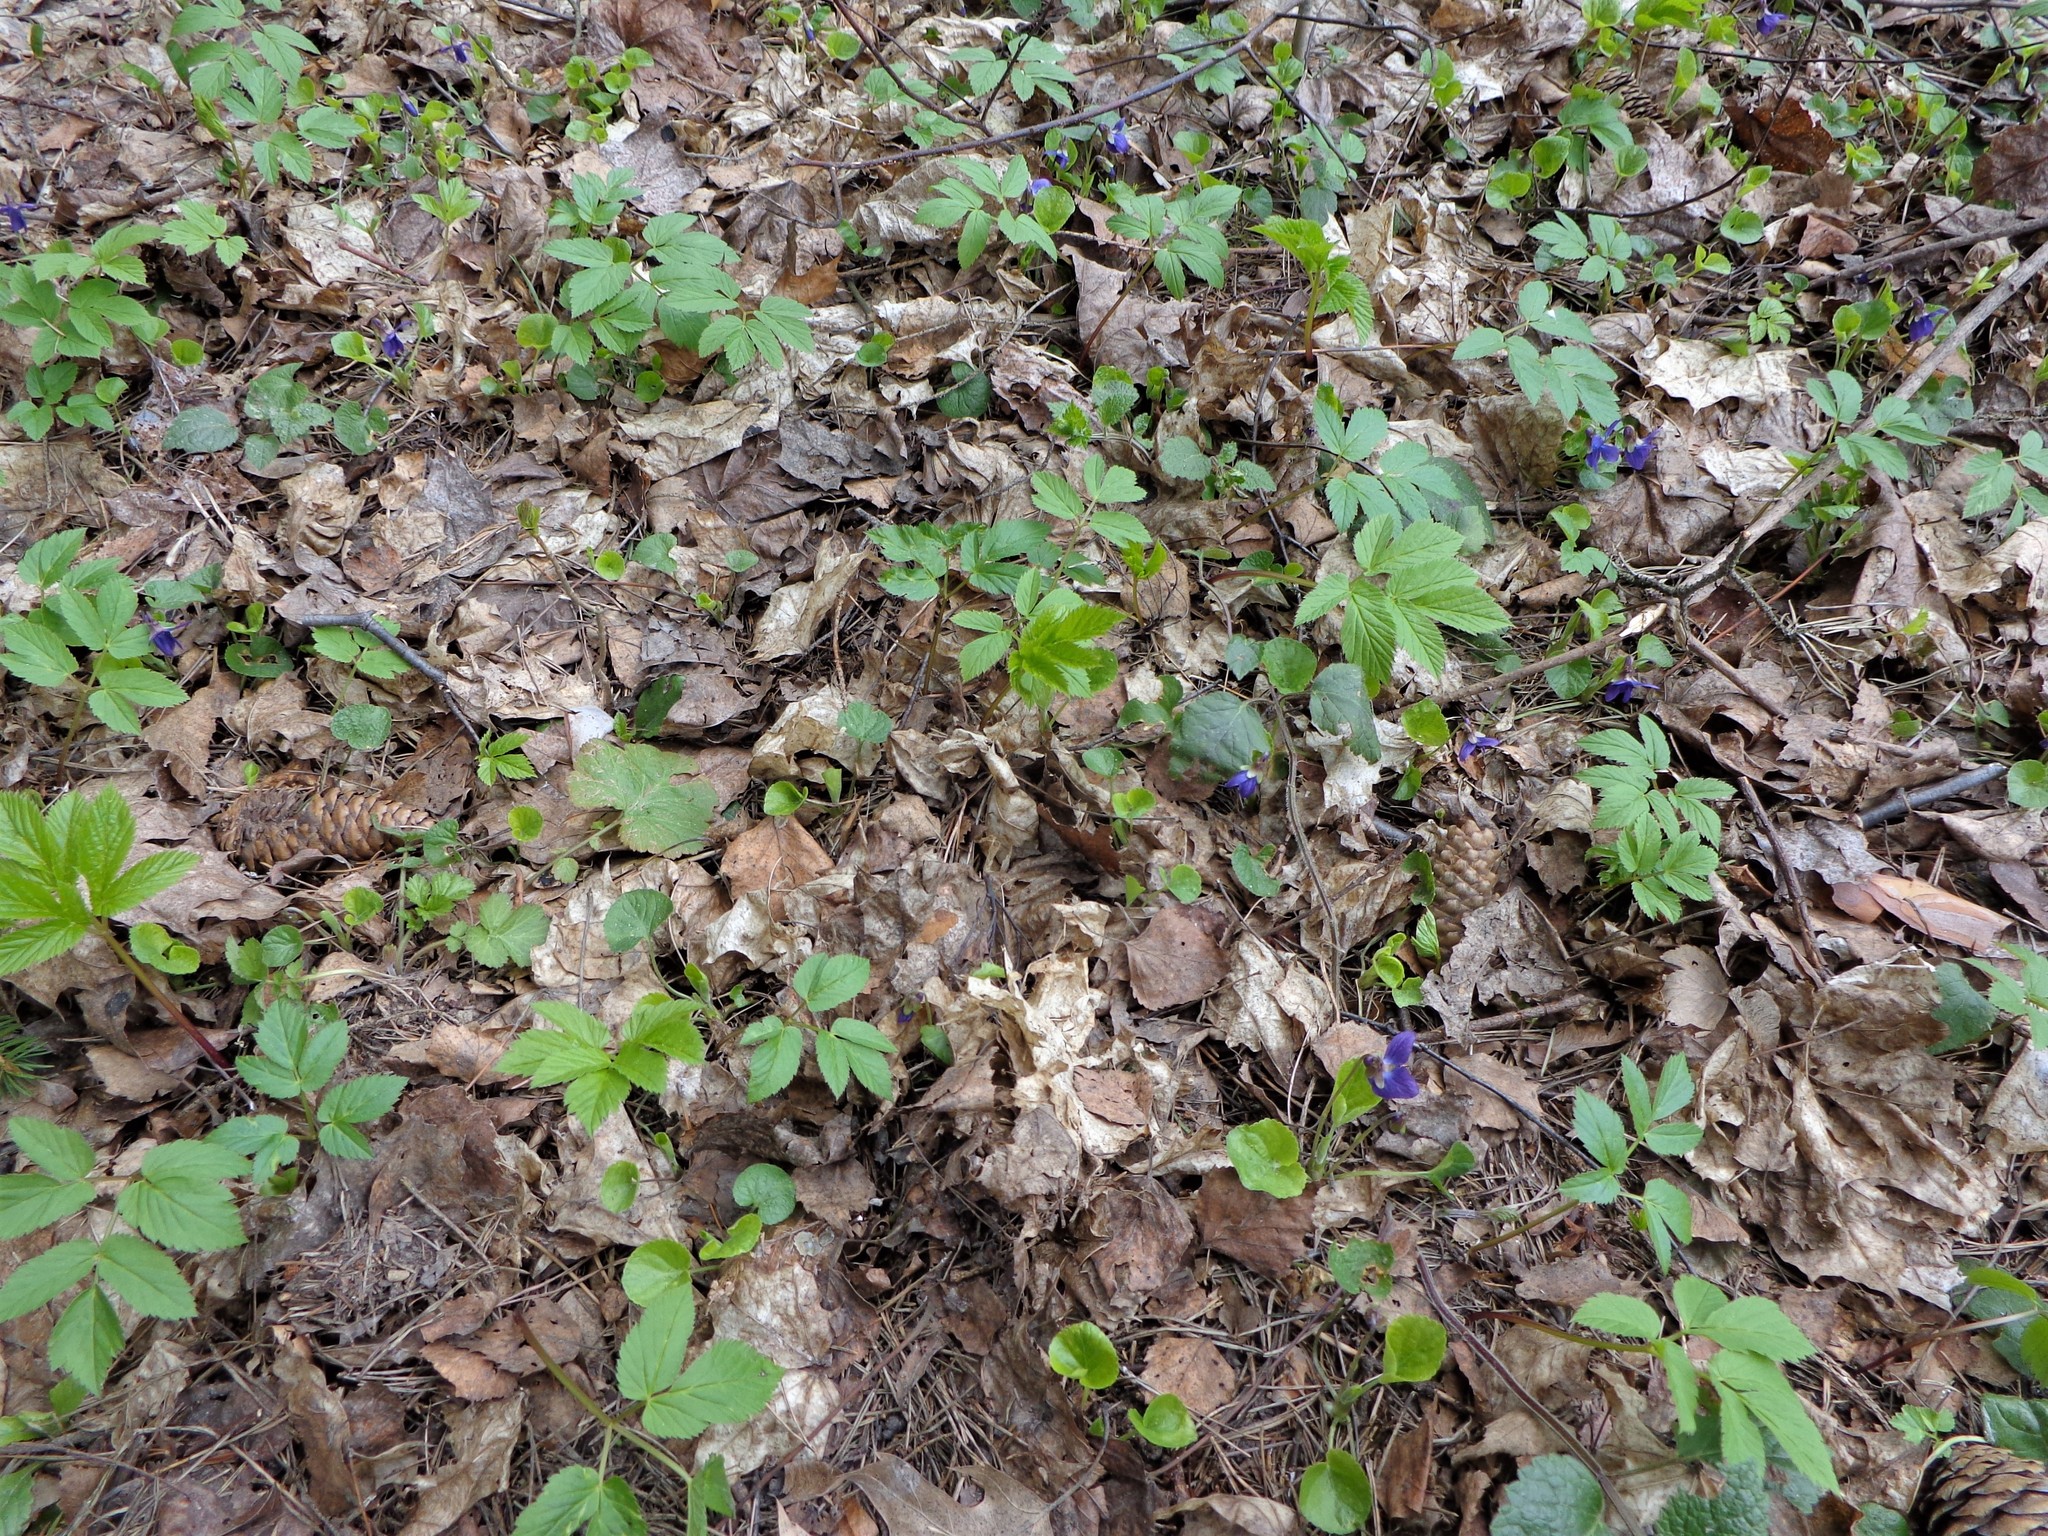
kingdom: Plantae
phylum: Tracheophyta
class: Magnoliopsida
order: Malpighiales
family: Violaceae
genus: Viola
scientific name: Viola odorata
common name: Sweet violet
